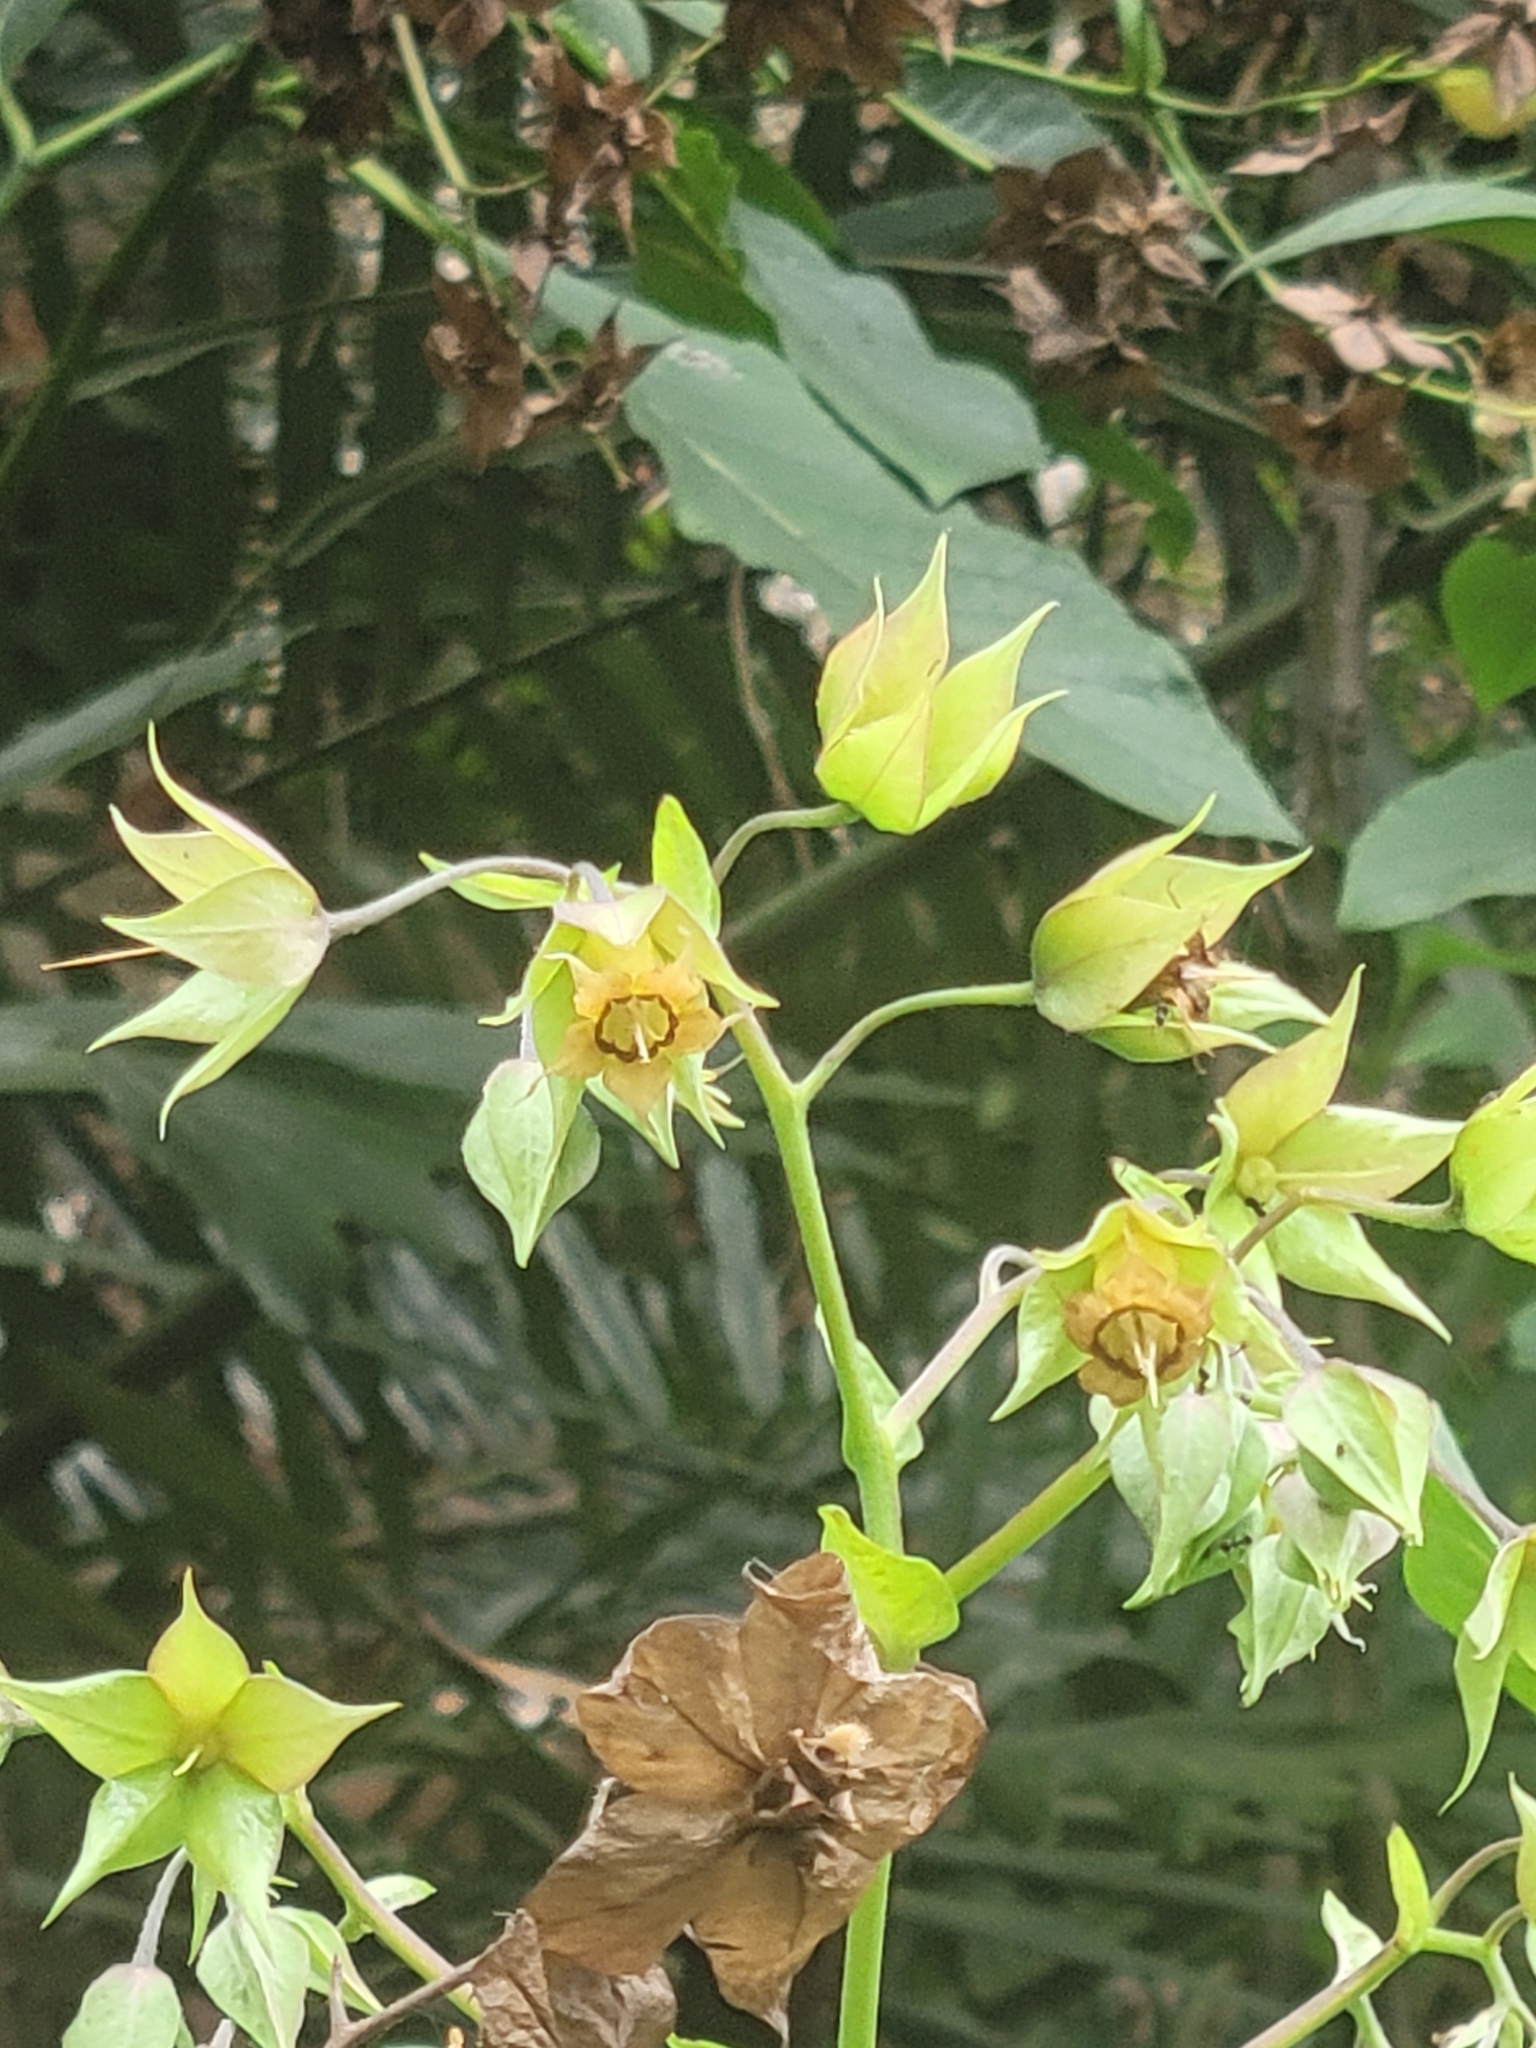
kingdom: Plantae
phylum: Tracheophyta
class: Magnoliopsida
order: Boraginales
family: Boraginaceae
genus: Trichodesma
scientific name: Trichodesma calycosum
